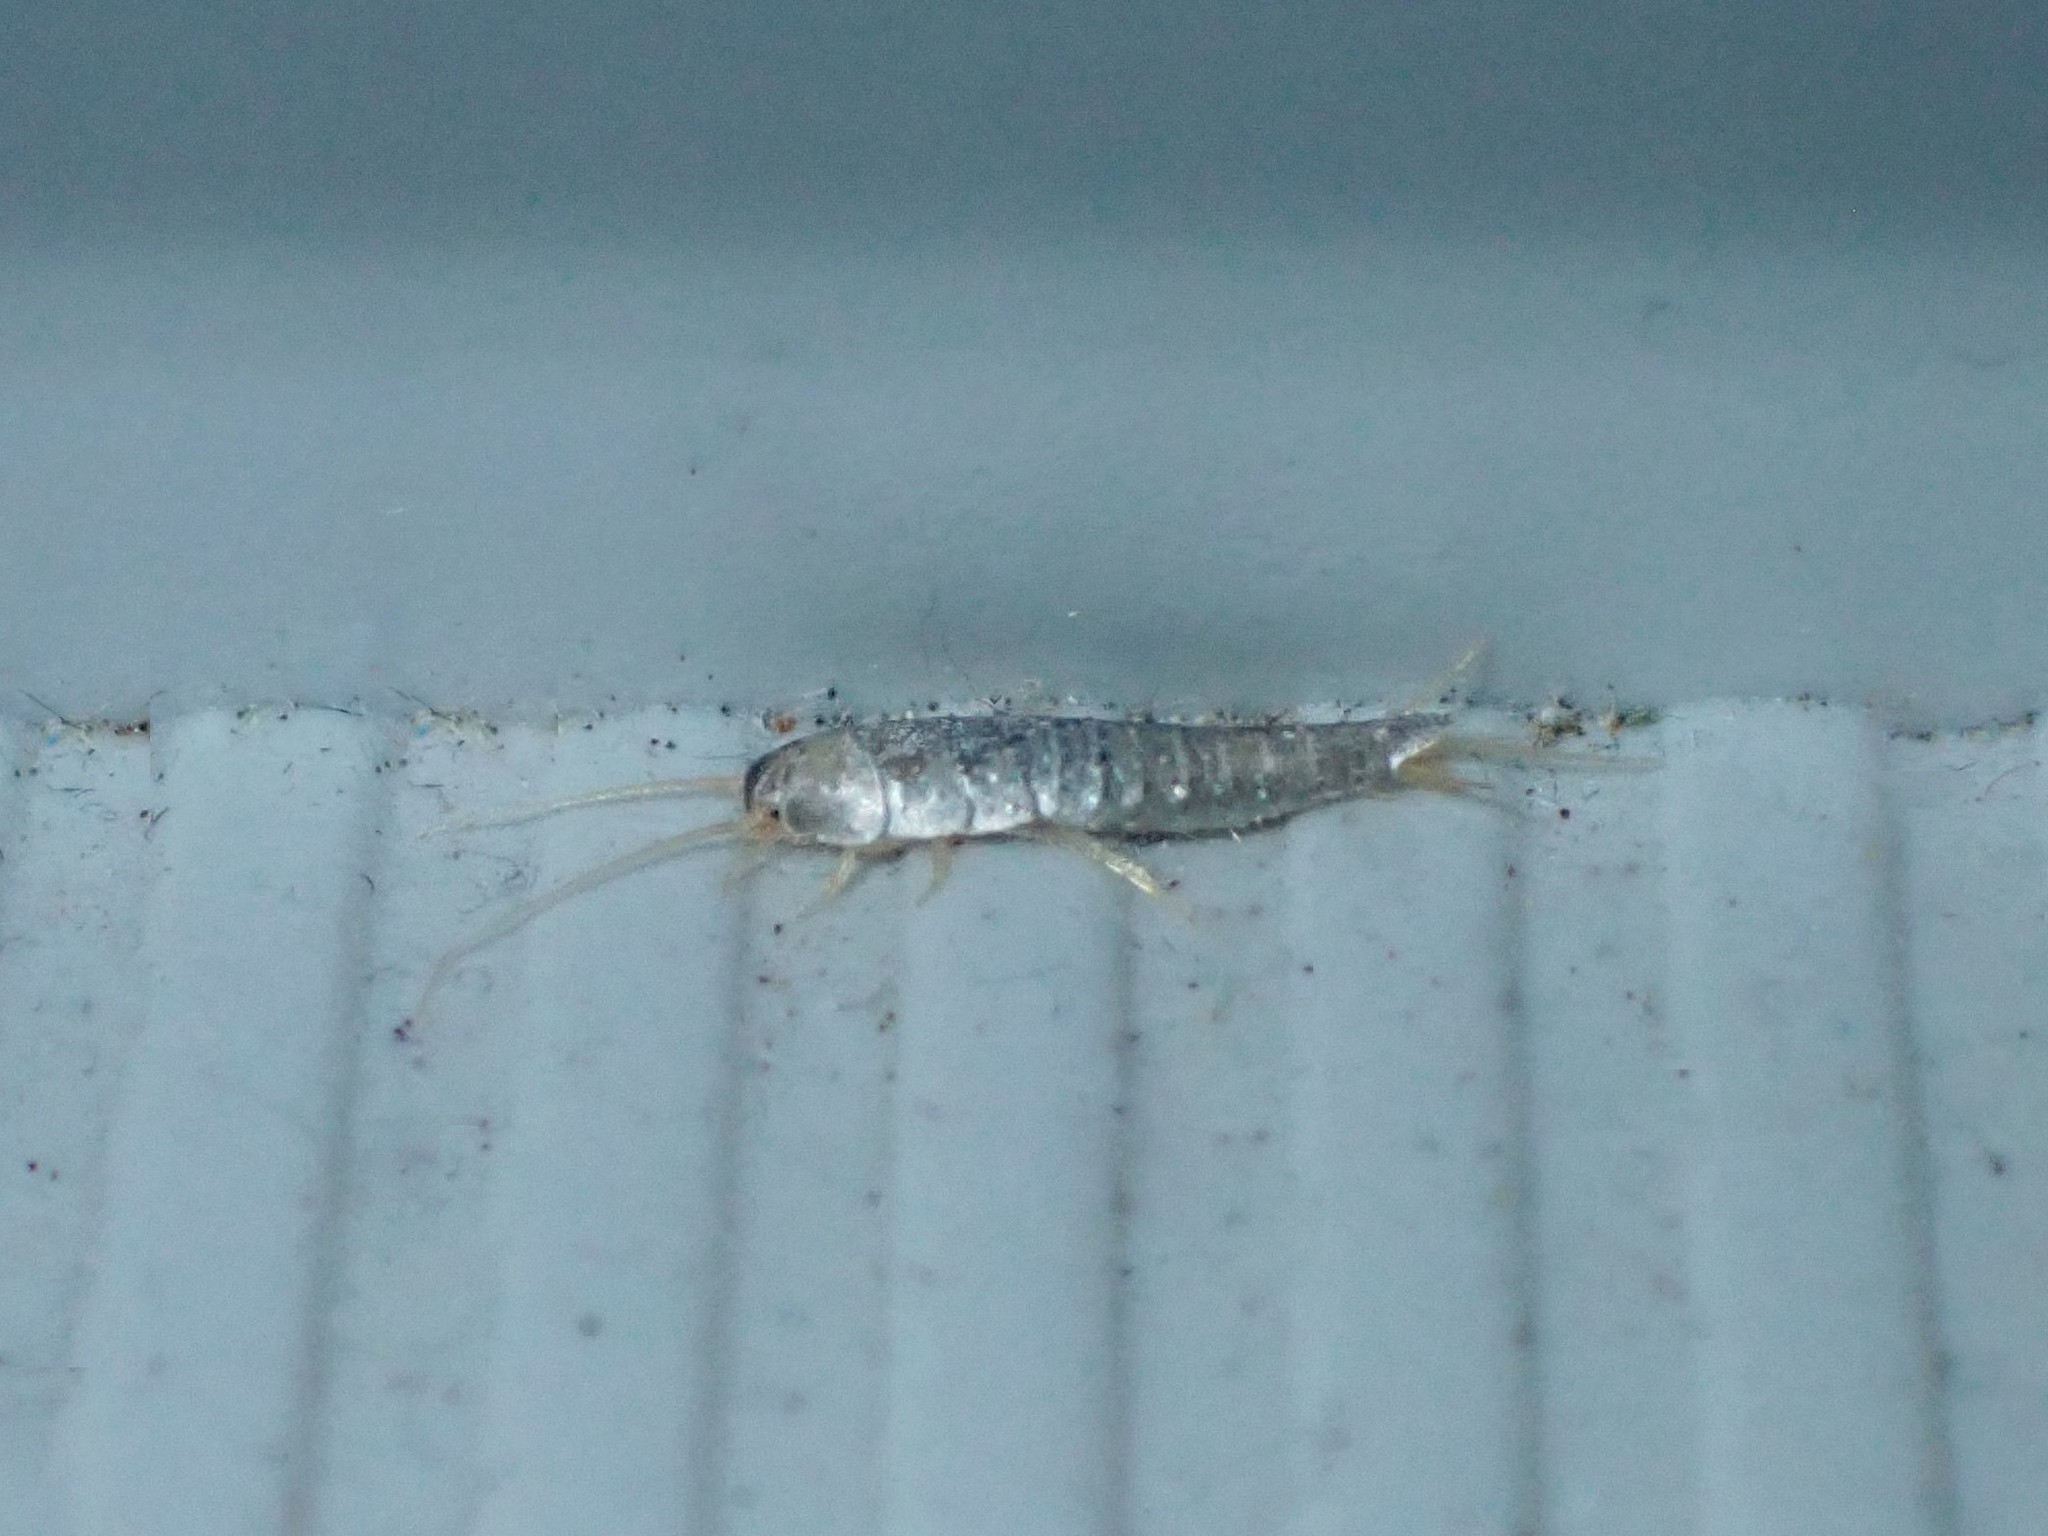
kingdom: Animalia
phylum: Arthropoda
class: Insecta
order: Zygentoma
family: Lepismatidae
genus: Lepisma
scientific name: Lepisma saccharinum
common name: Silverfish
